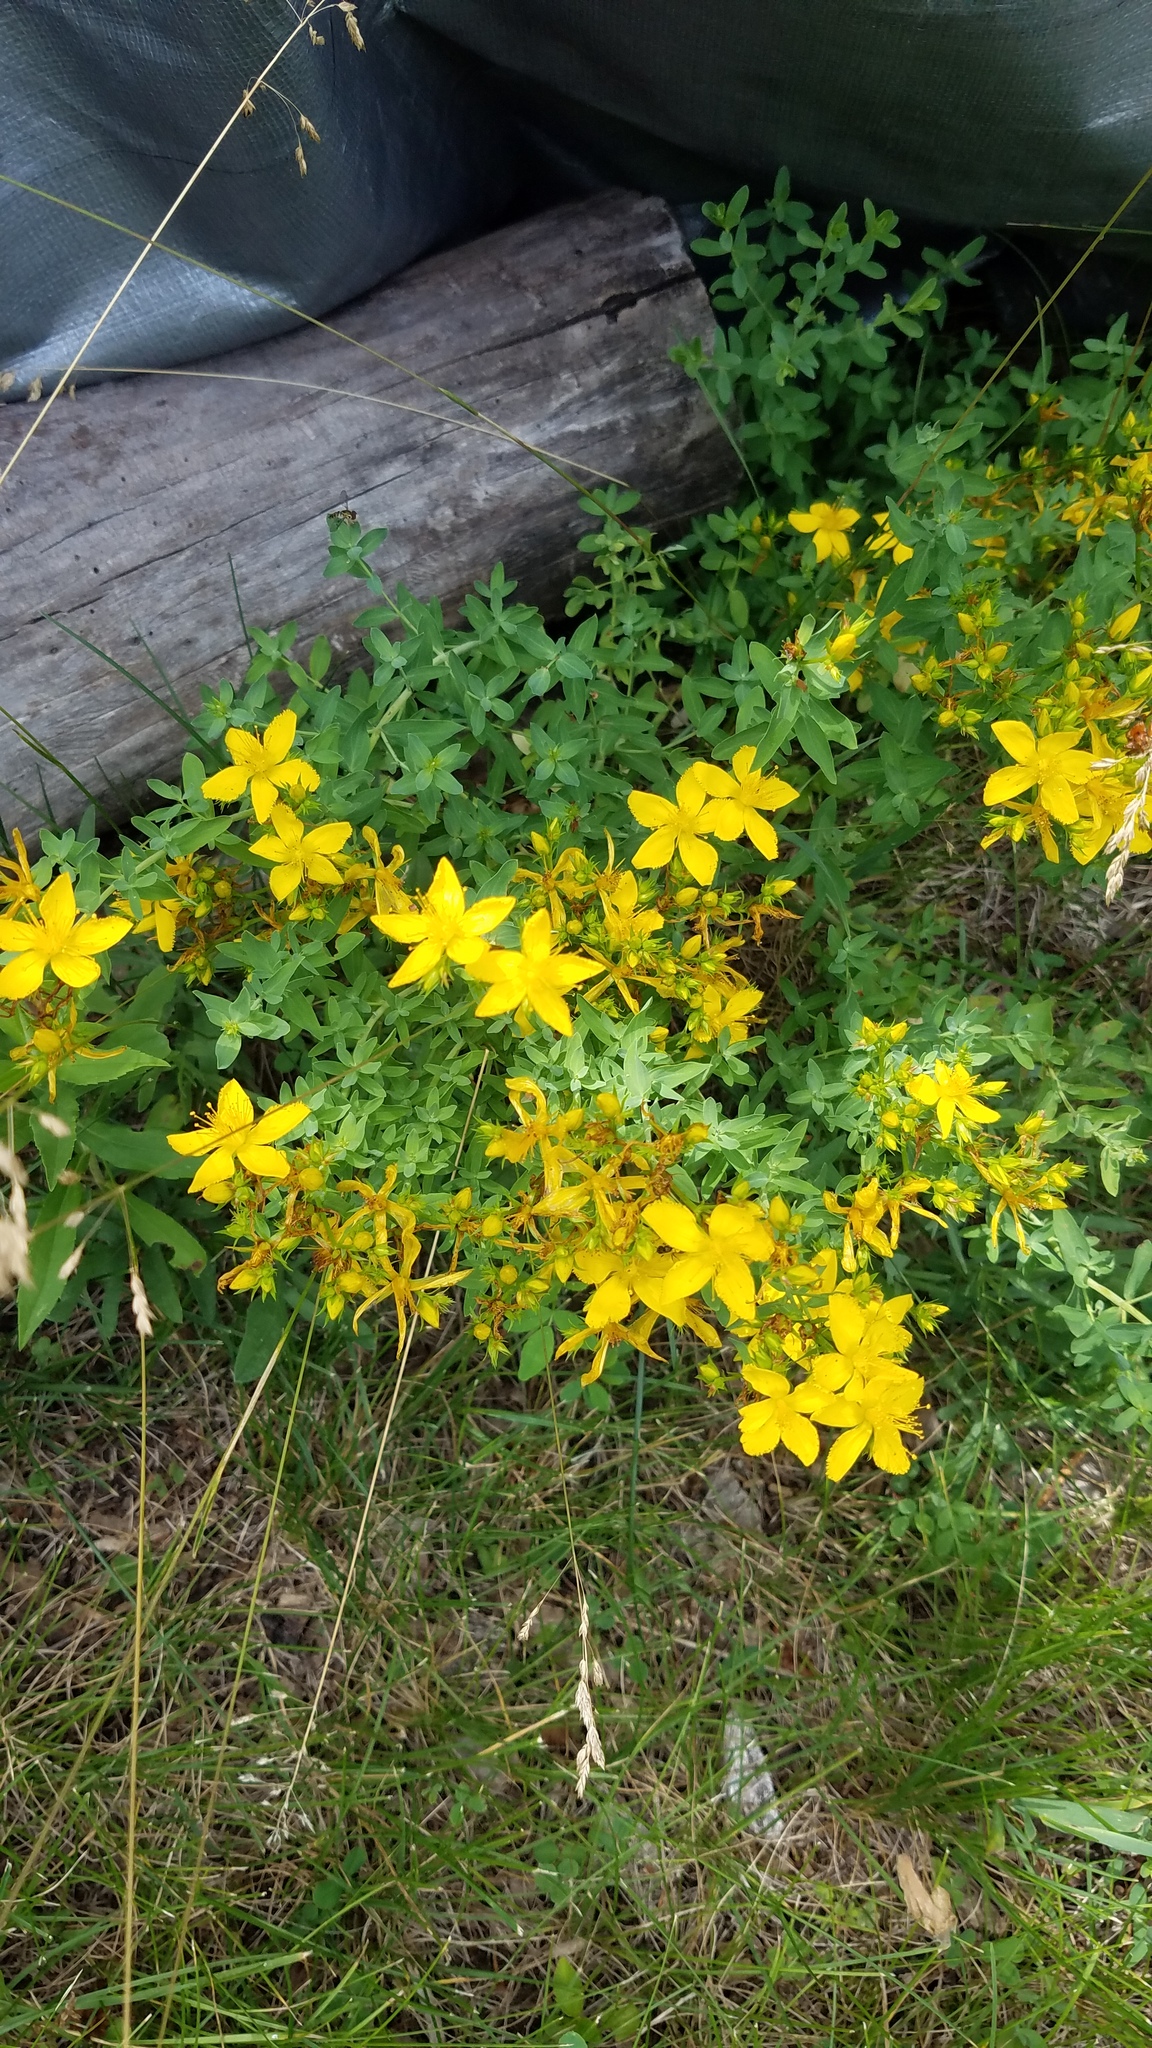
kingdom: Plantae
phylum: Tracheophyta
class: Magnoliopsida
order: Malpighiales
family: Hypericaceae
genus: Hypericum
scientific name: Hypericum perforatum
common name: Common st. johnswort
